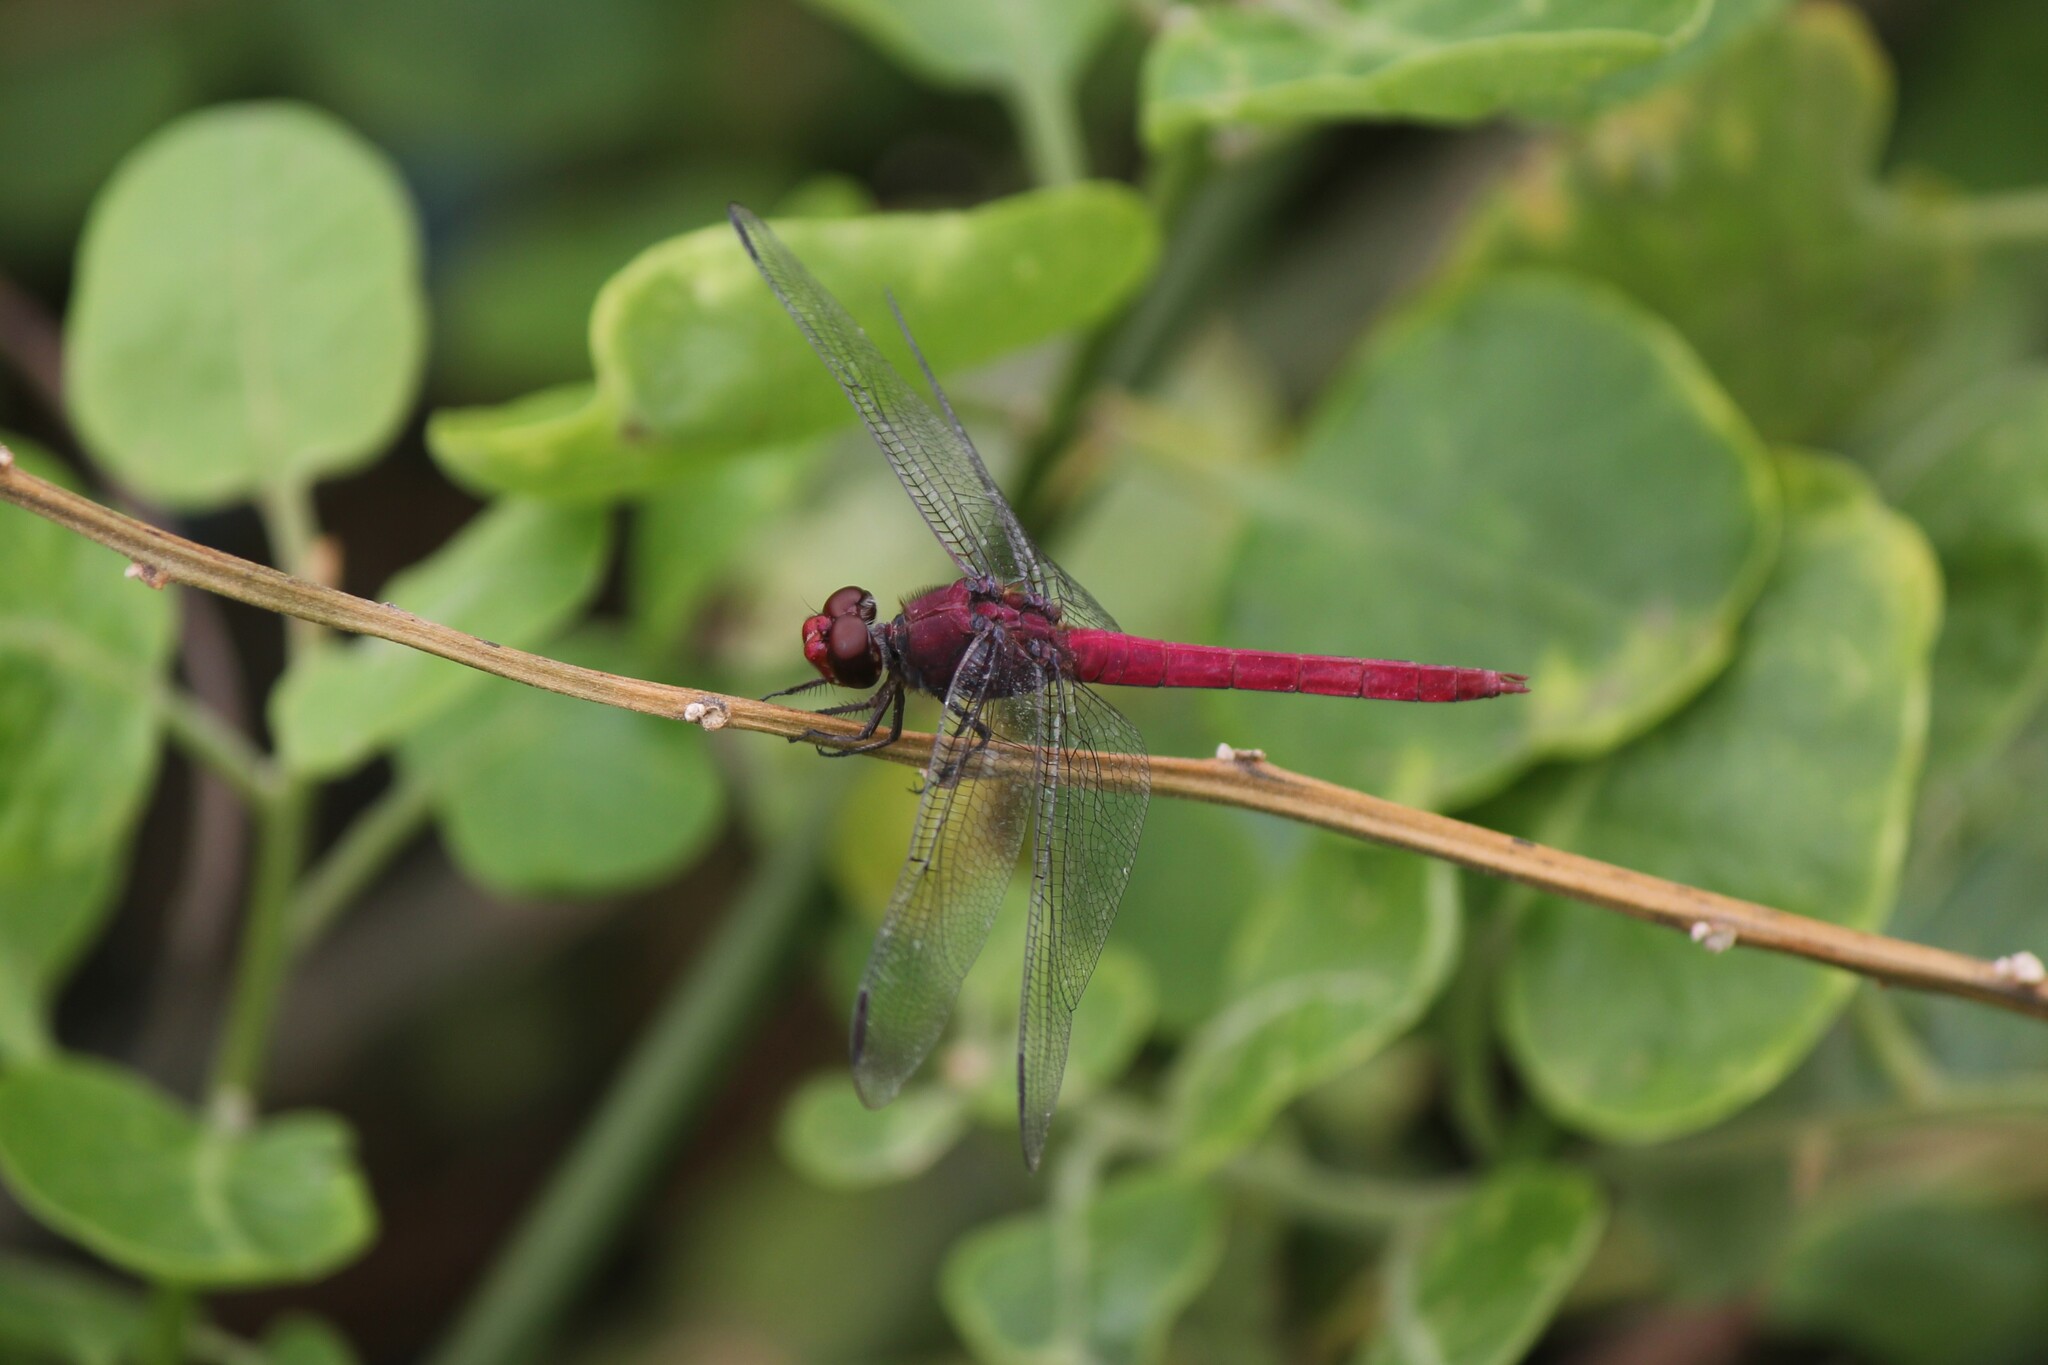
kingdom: Animalia
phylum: Arthropoda
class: Insecta
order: Odonata
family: Libellulidae
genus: Orthemis
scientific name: Orthemis discolor
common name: Carmine skimmer
